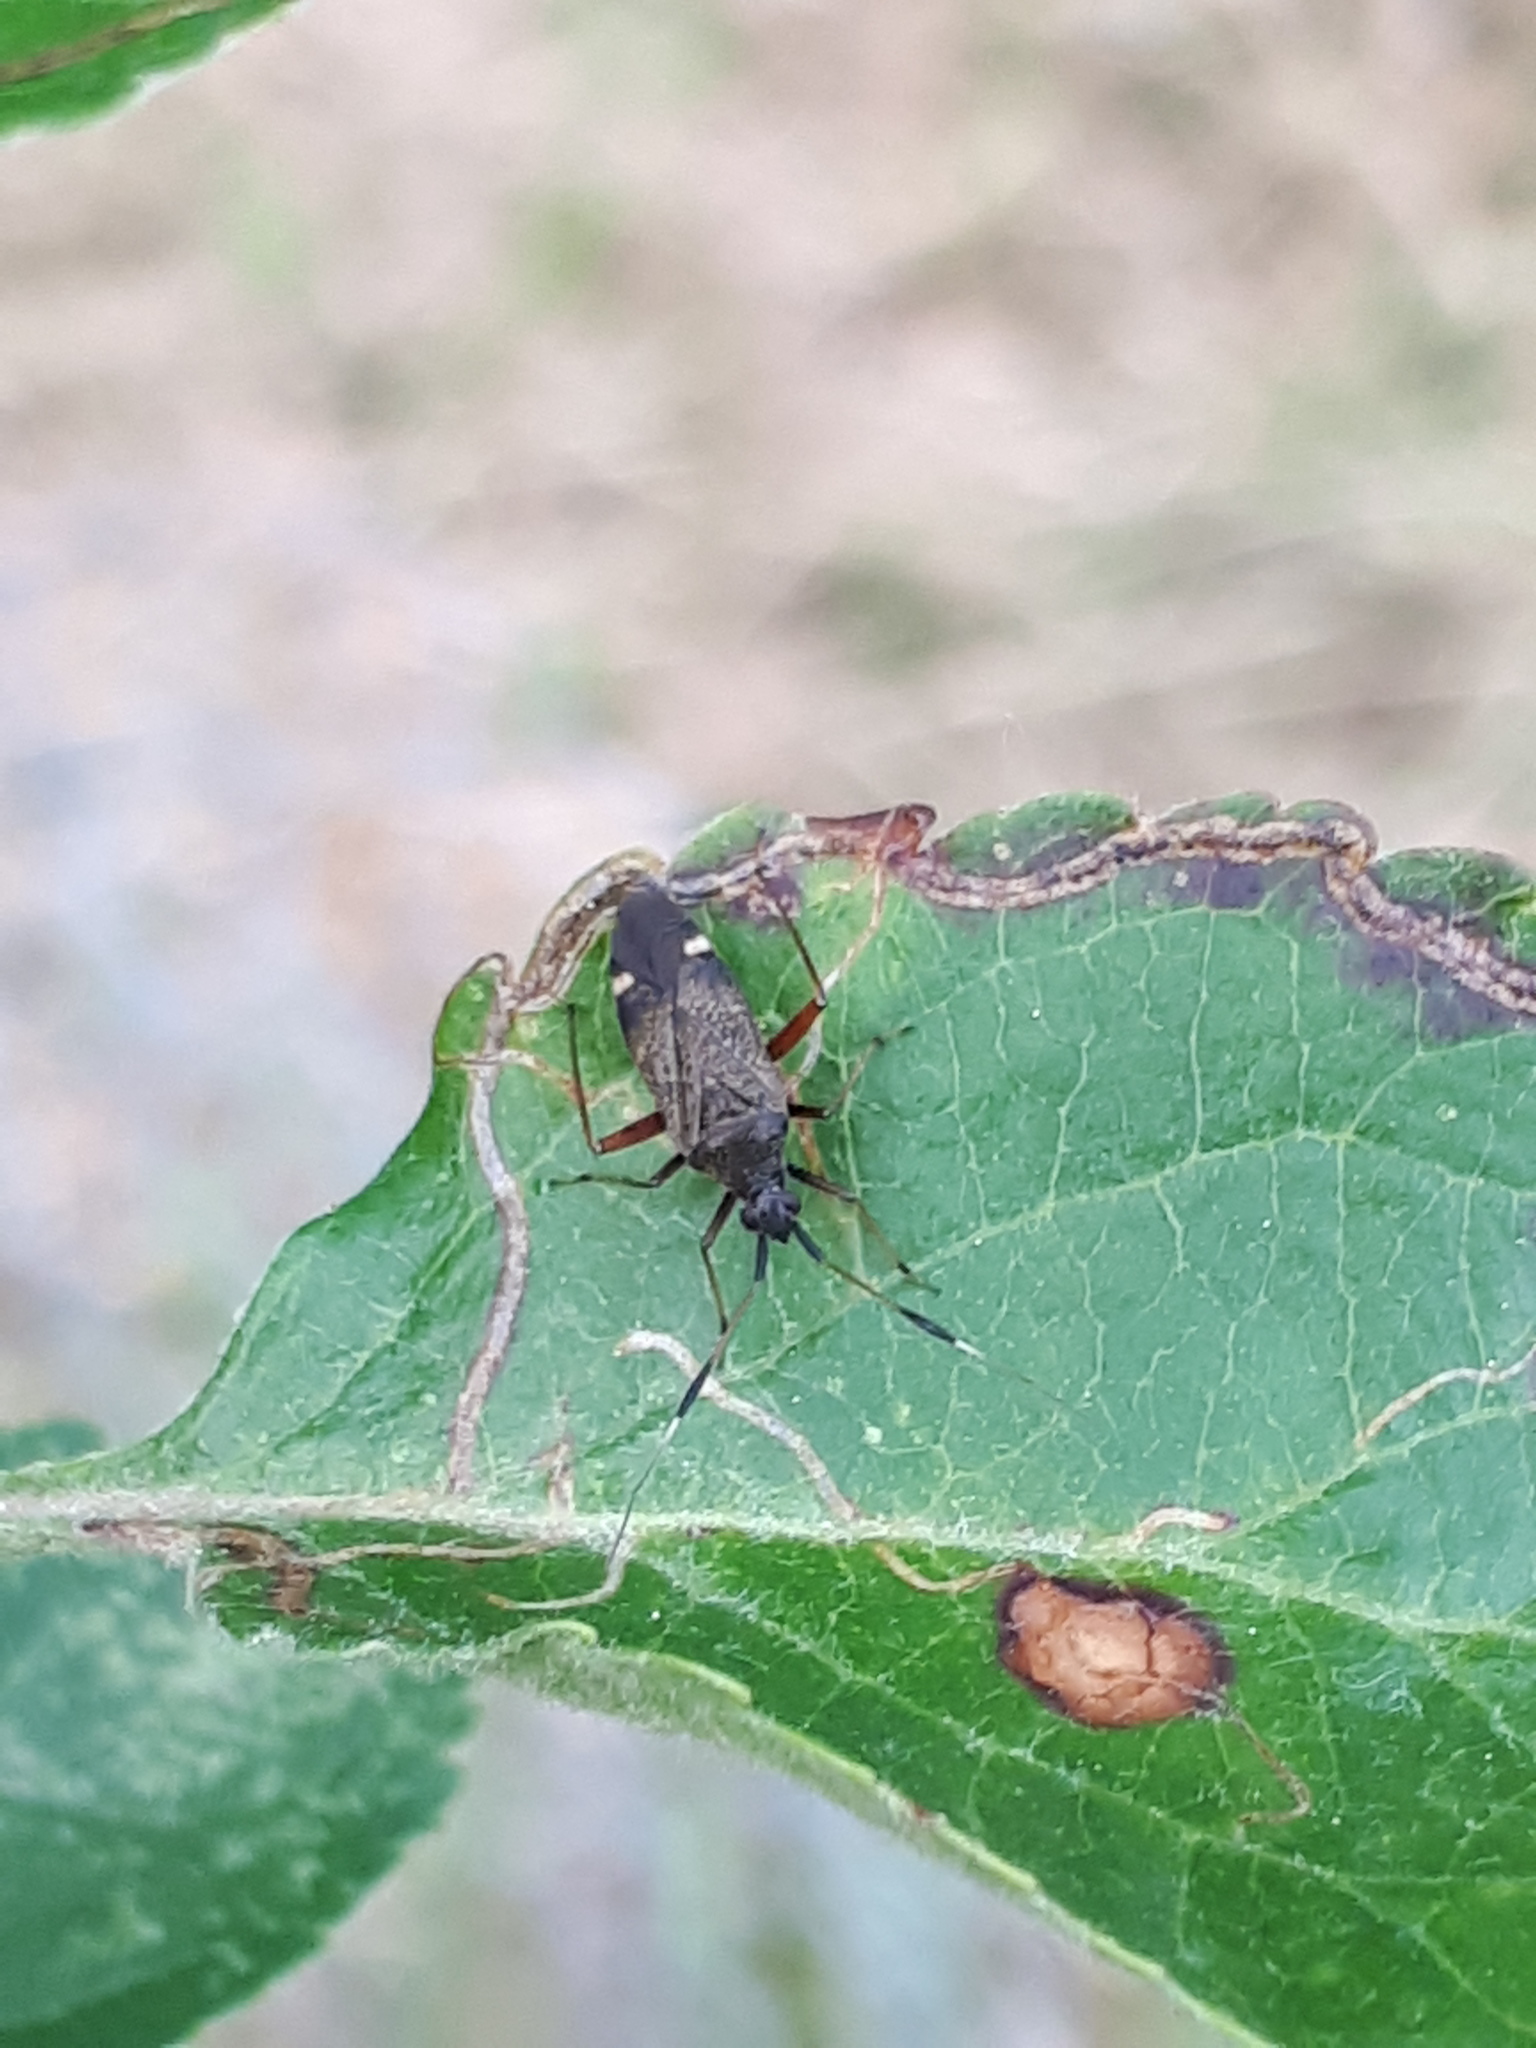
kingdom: Animalia
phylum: Arthropoda
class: Insecta
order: Hemiptera
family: Miridae
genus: Closterotomus
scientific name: Closterotomus biclavatus
